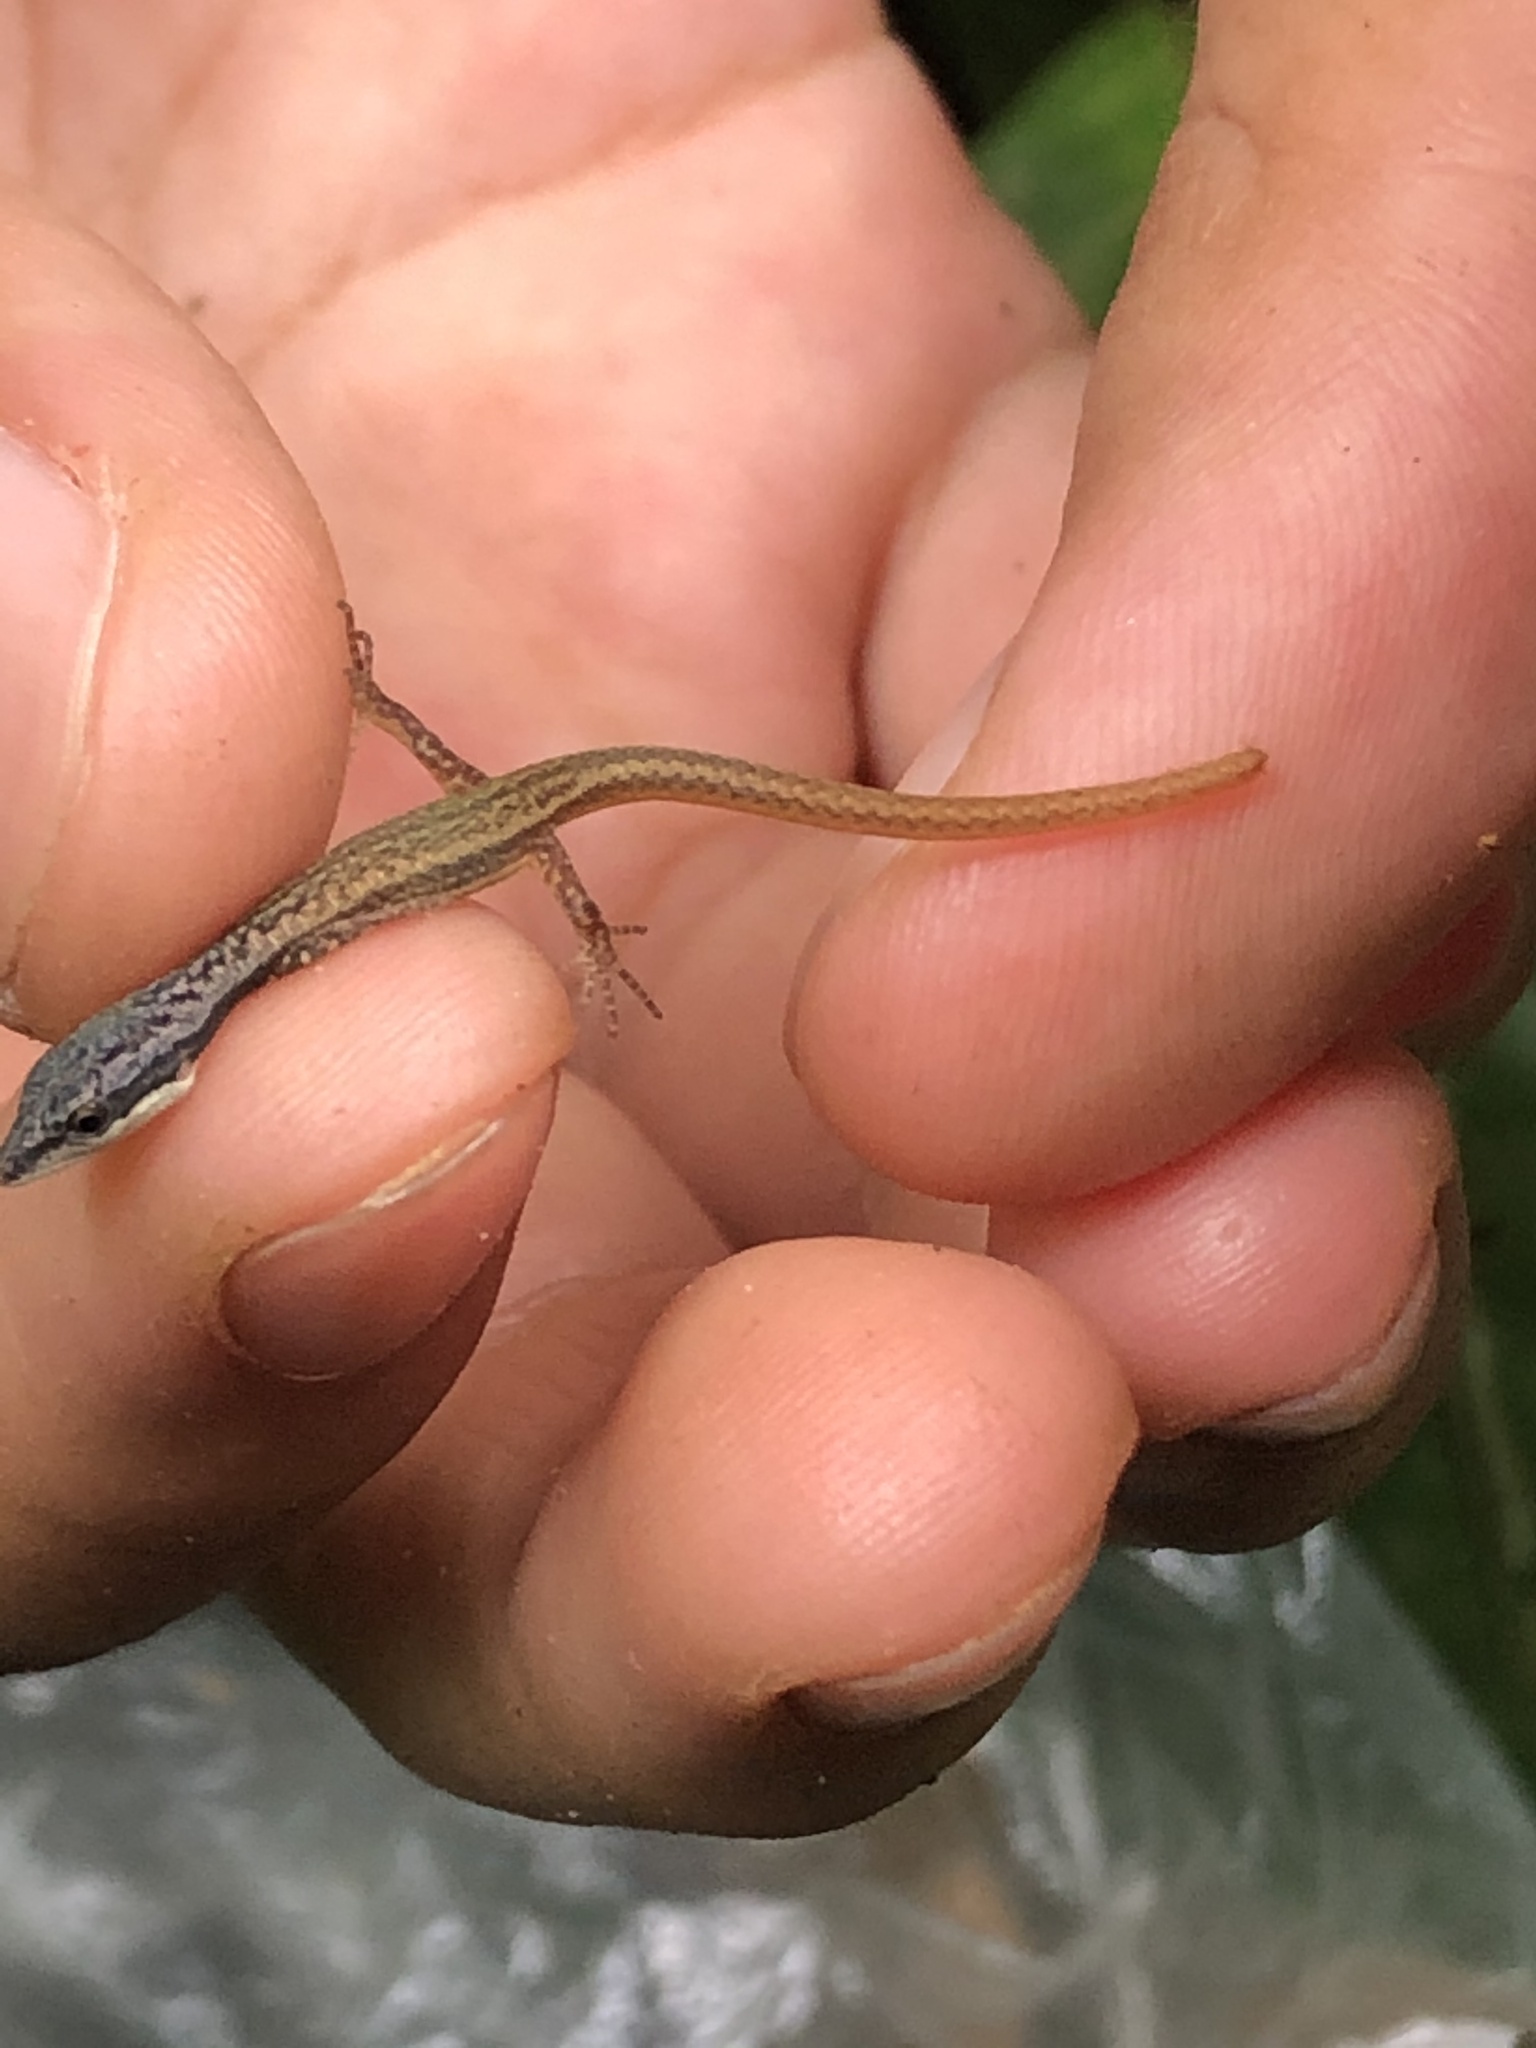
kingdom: Animalia
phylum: Chordata
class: Squamata
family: Gymnophthalmidae
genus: Cercosaura
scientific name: Cercosaura argulus
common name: White-lipped cercosaura
